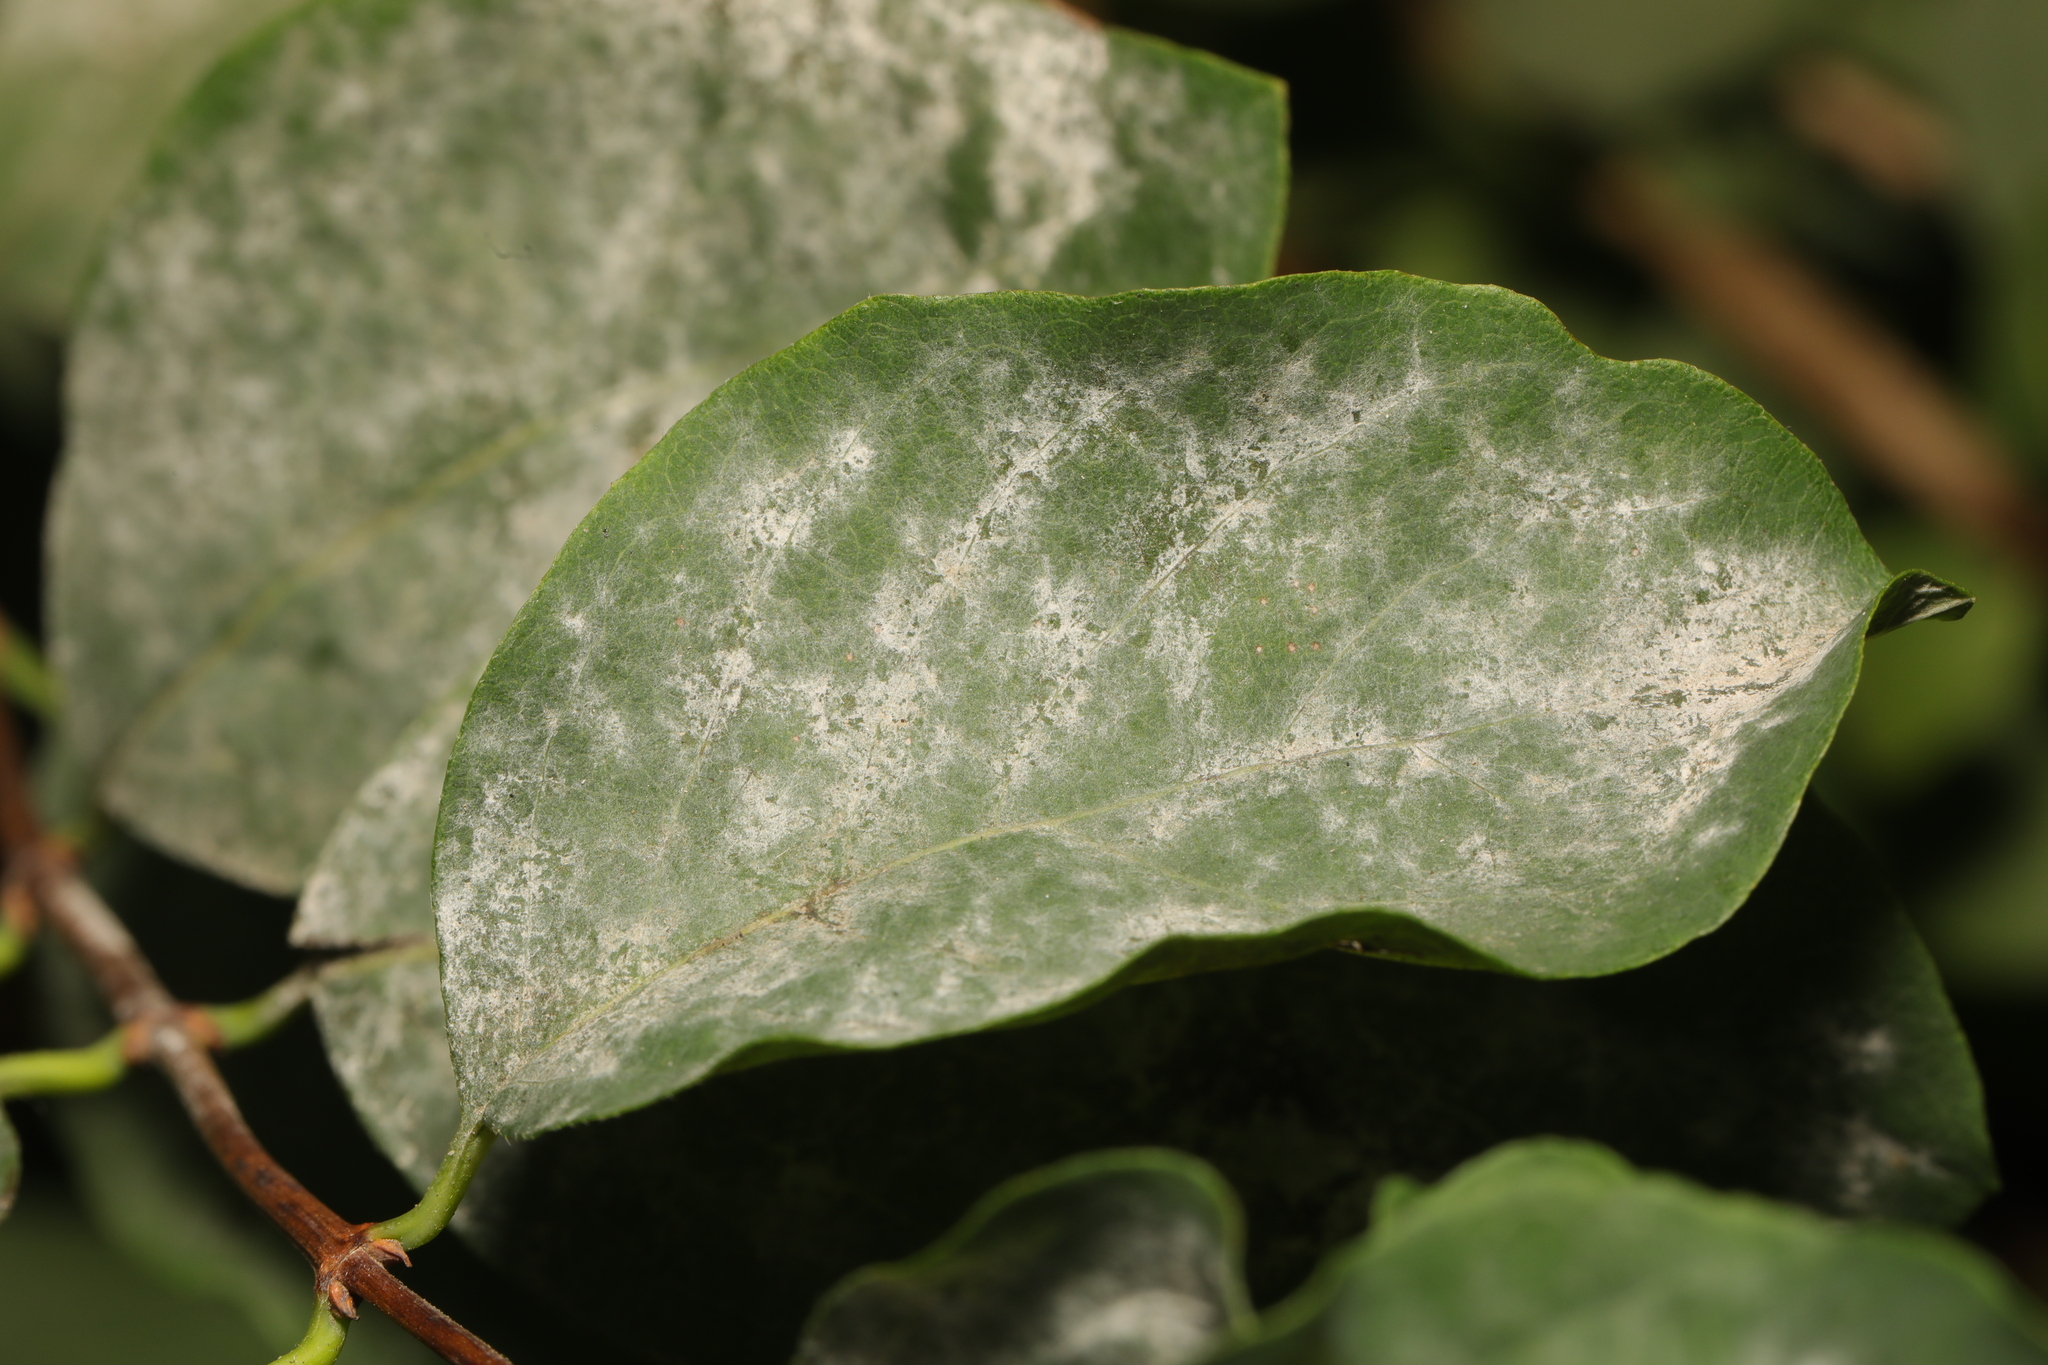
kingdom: Fungi
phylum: Ascomycota
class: Leotiomycetes
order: Helotiales
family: Erysiphaceae
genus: Erysiphe
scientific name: Erysiphe symphoricarpi
